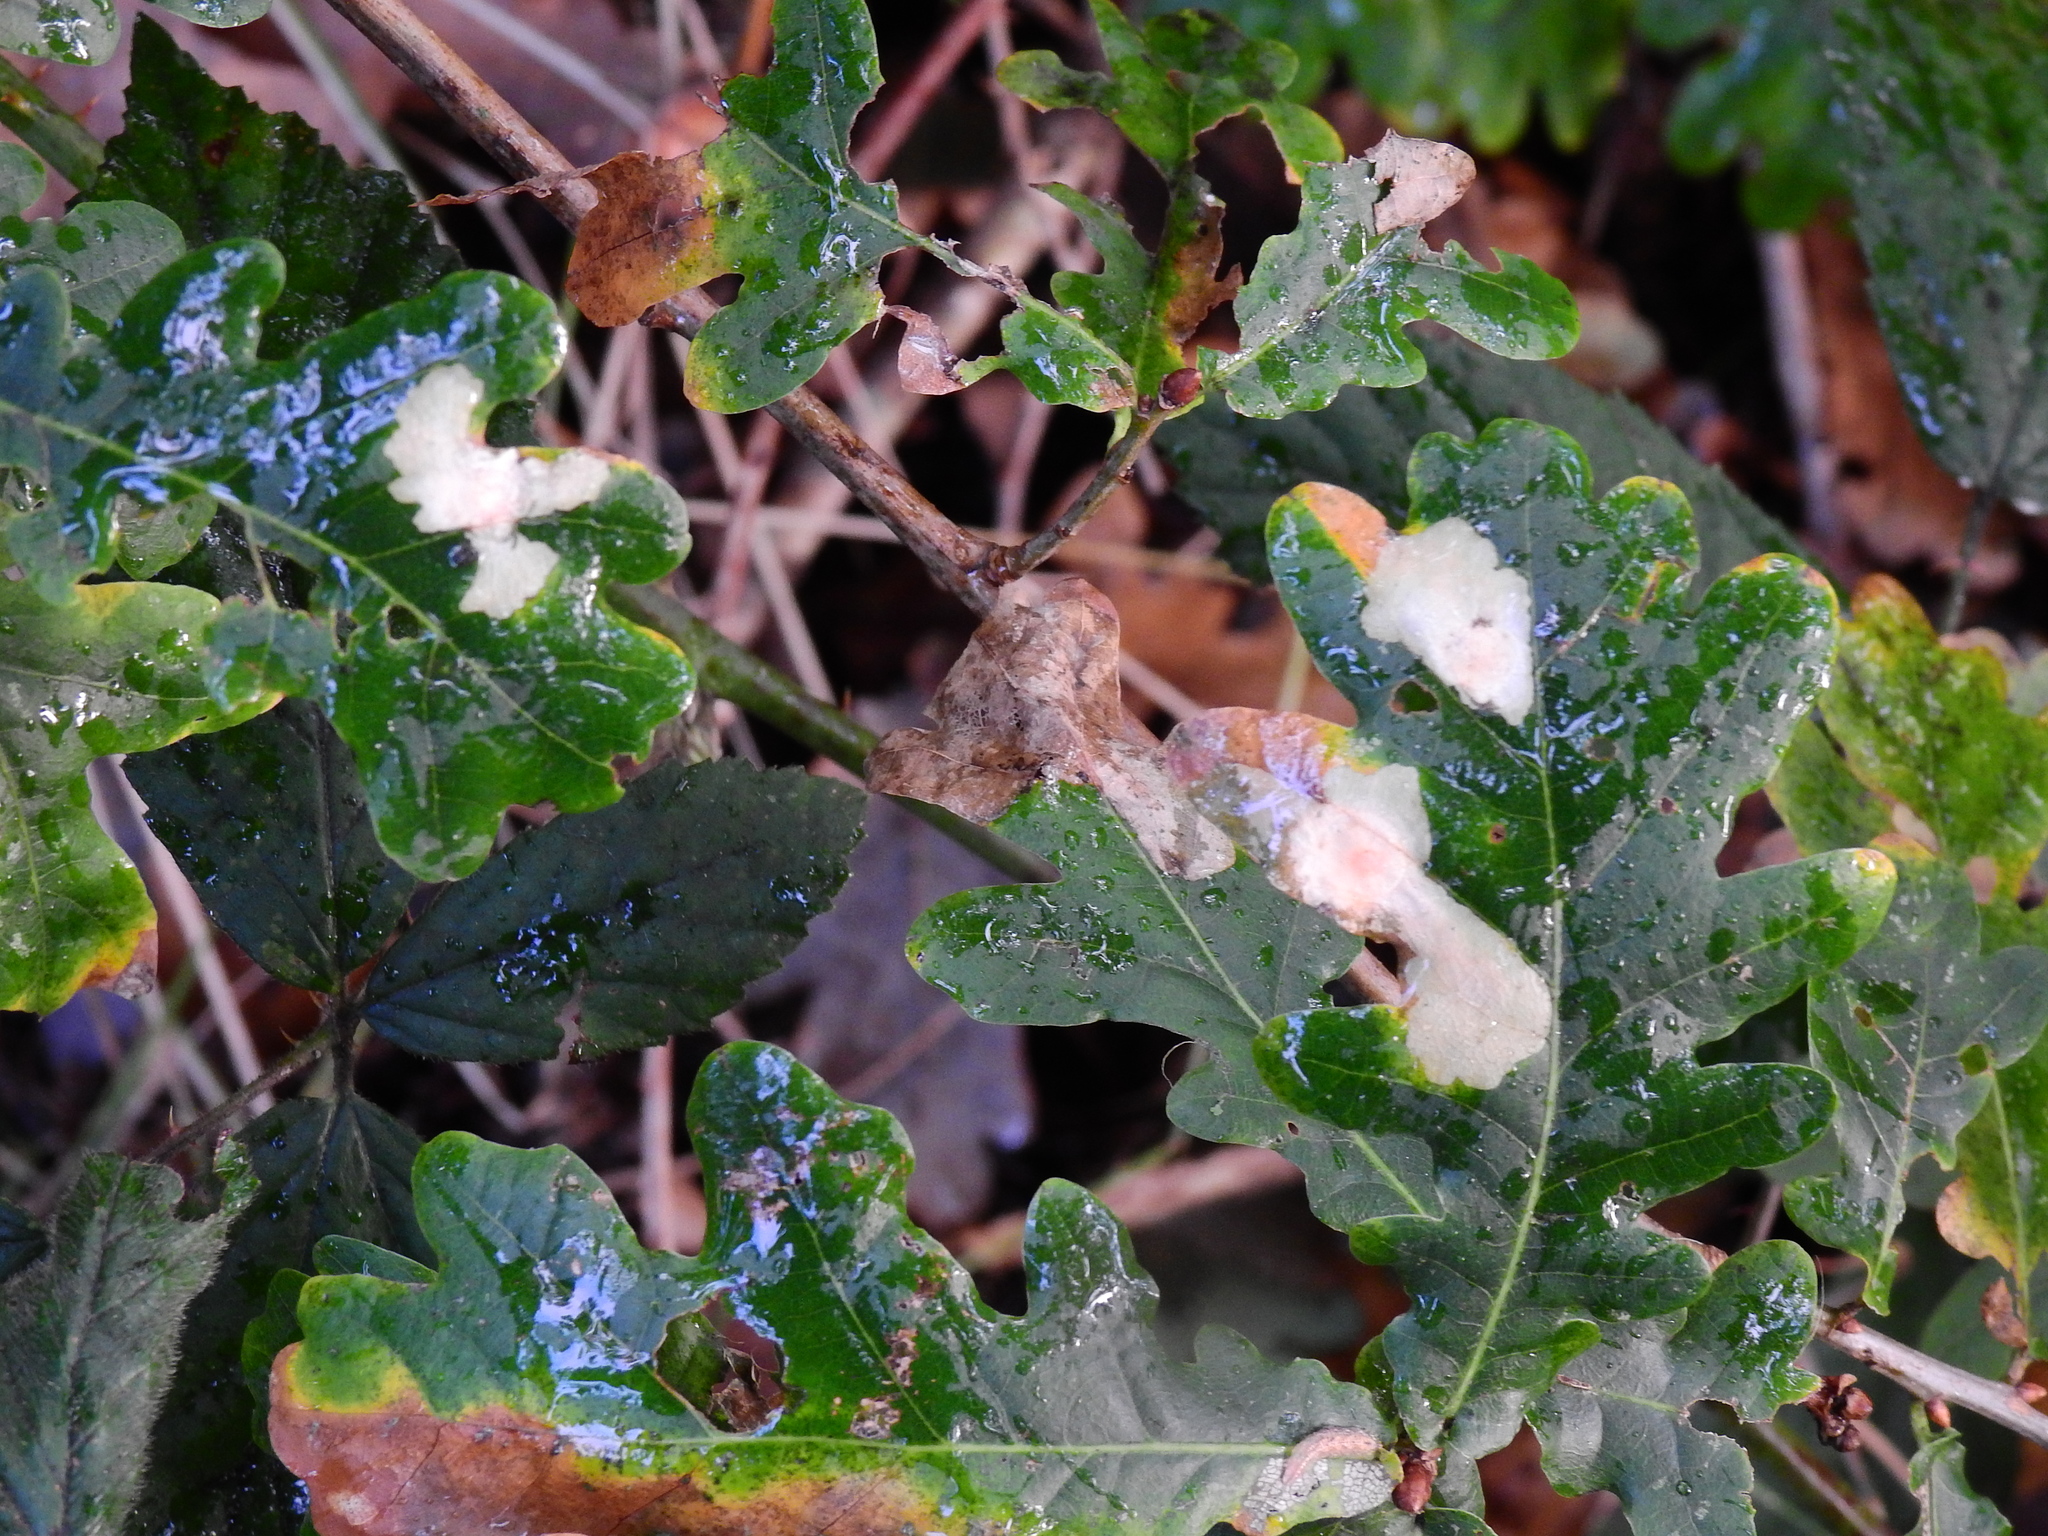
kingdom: Animalia
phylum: Arthropoda
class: Insecta
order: Lepidoptera
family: Tischeriidae
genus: Tischeria
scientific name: Tischeria ekebladella
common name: Oak carl
